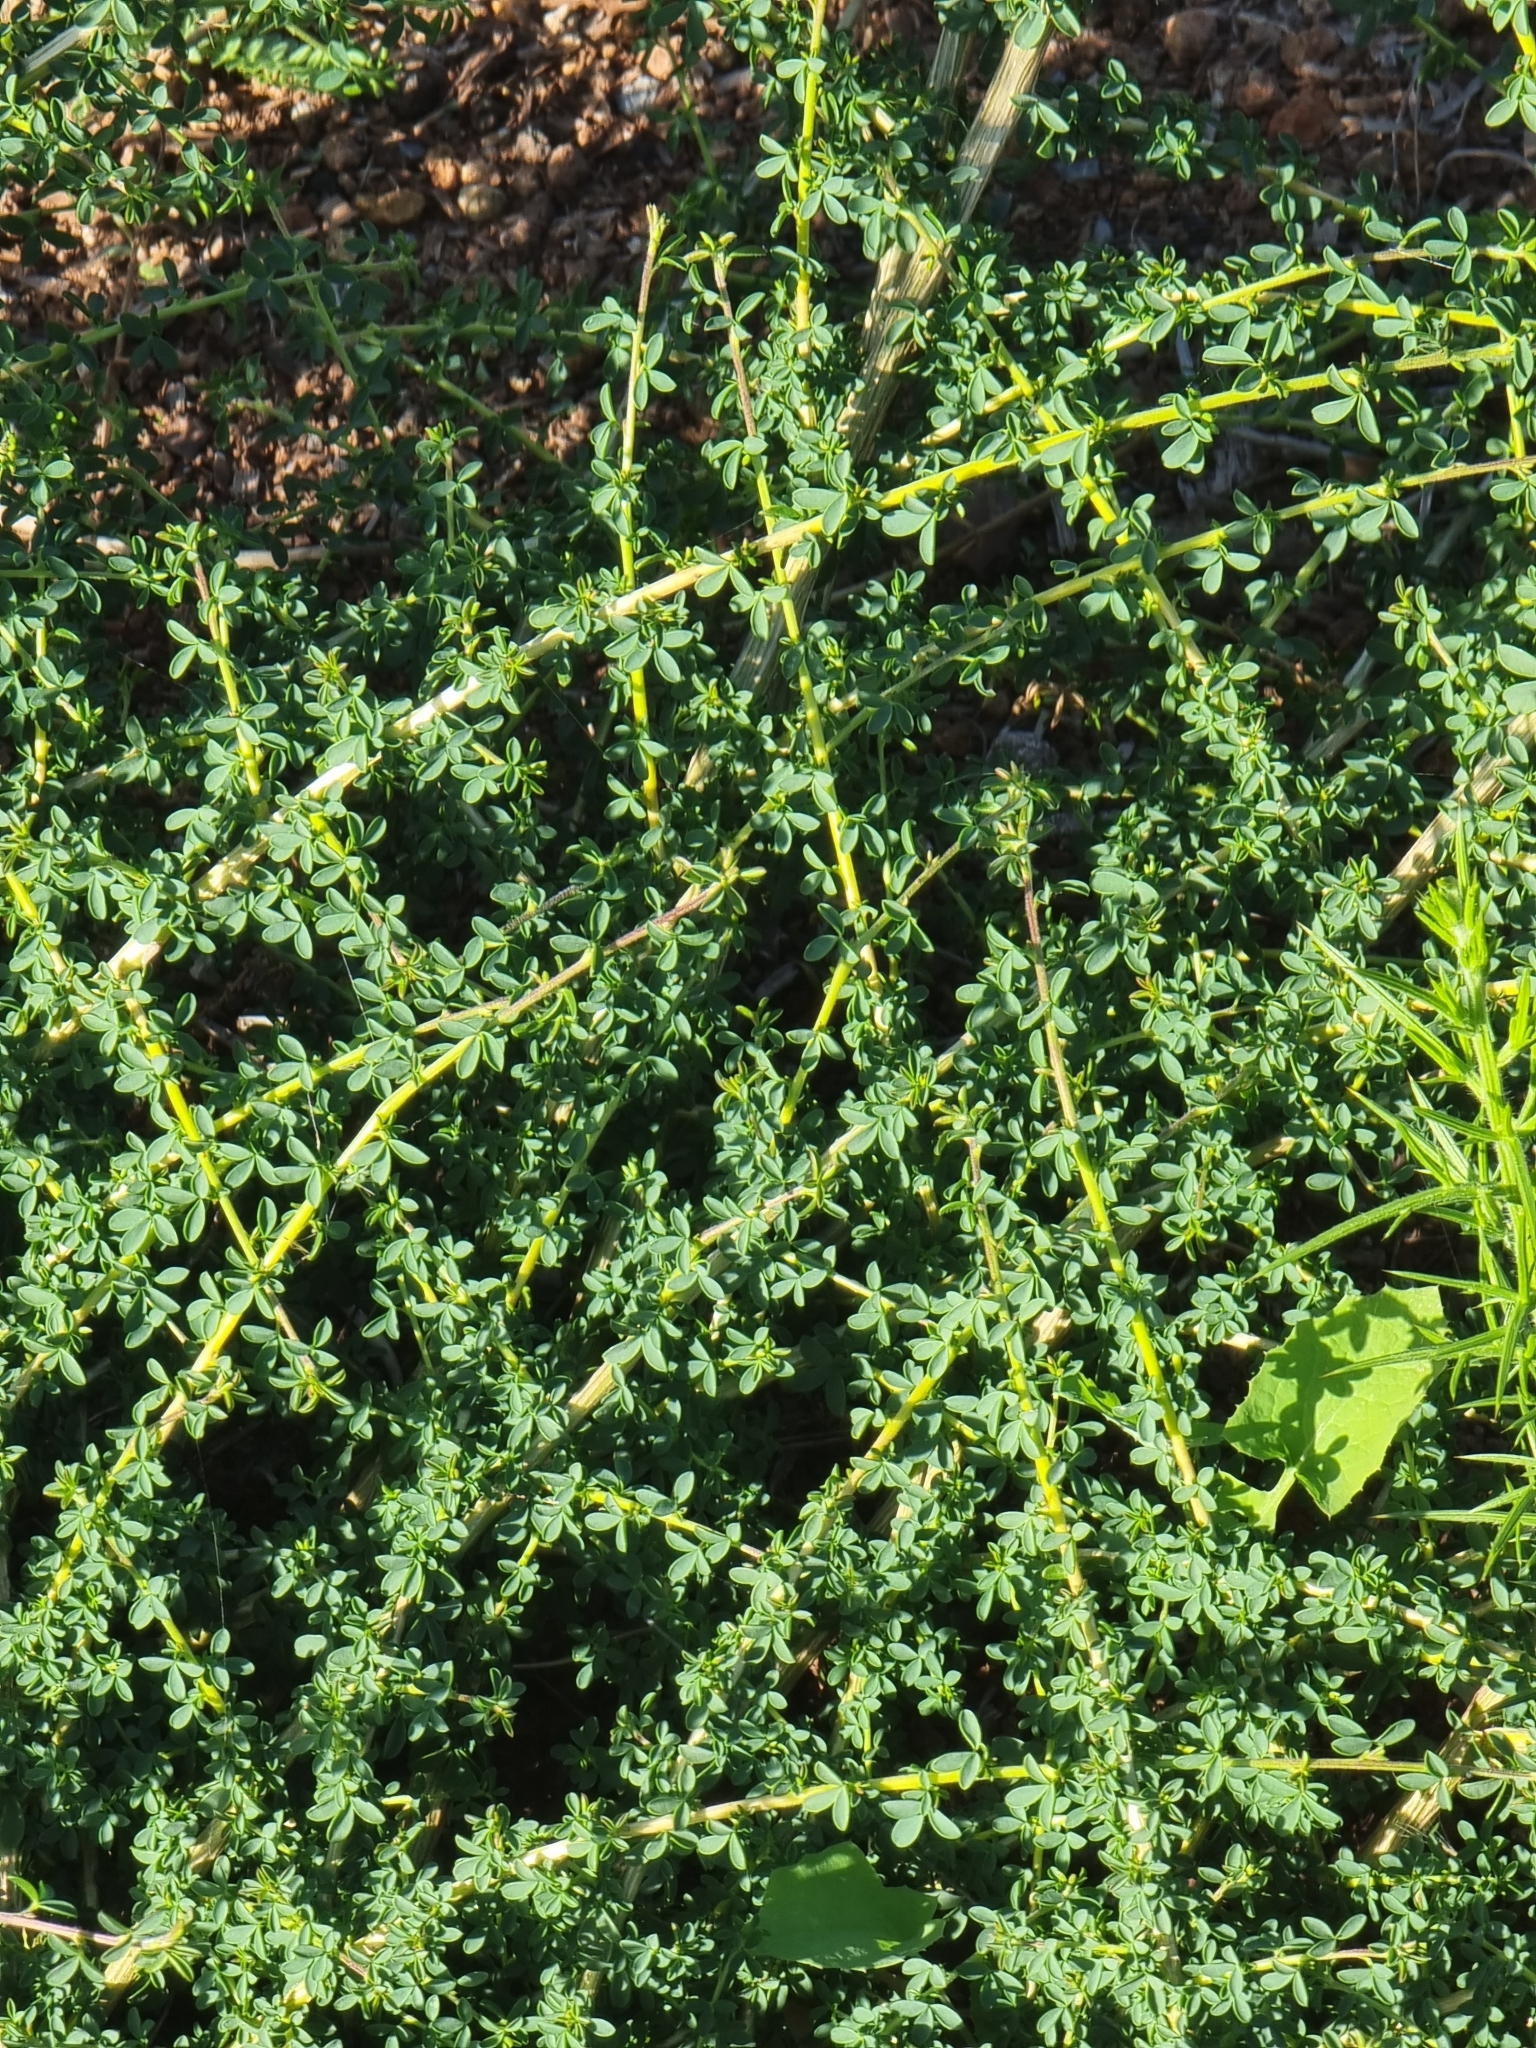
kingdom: Plantae
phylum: Tracheophyta
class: Magnoliopsida
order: Fabales
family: Fabaceae
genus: Adenocarpus
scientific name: Adenocarpus complicatus
